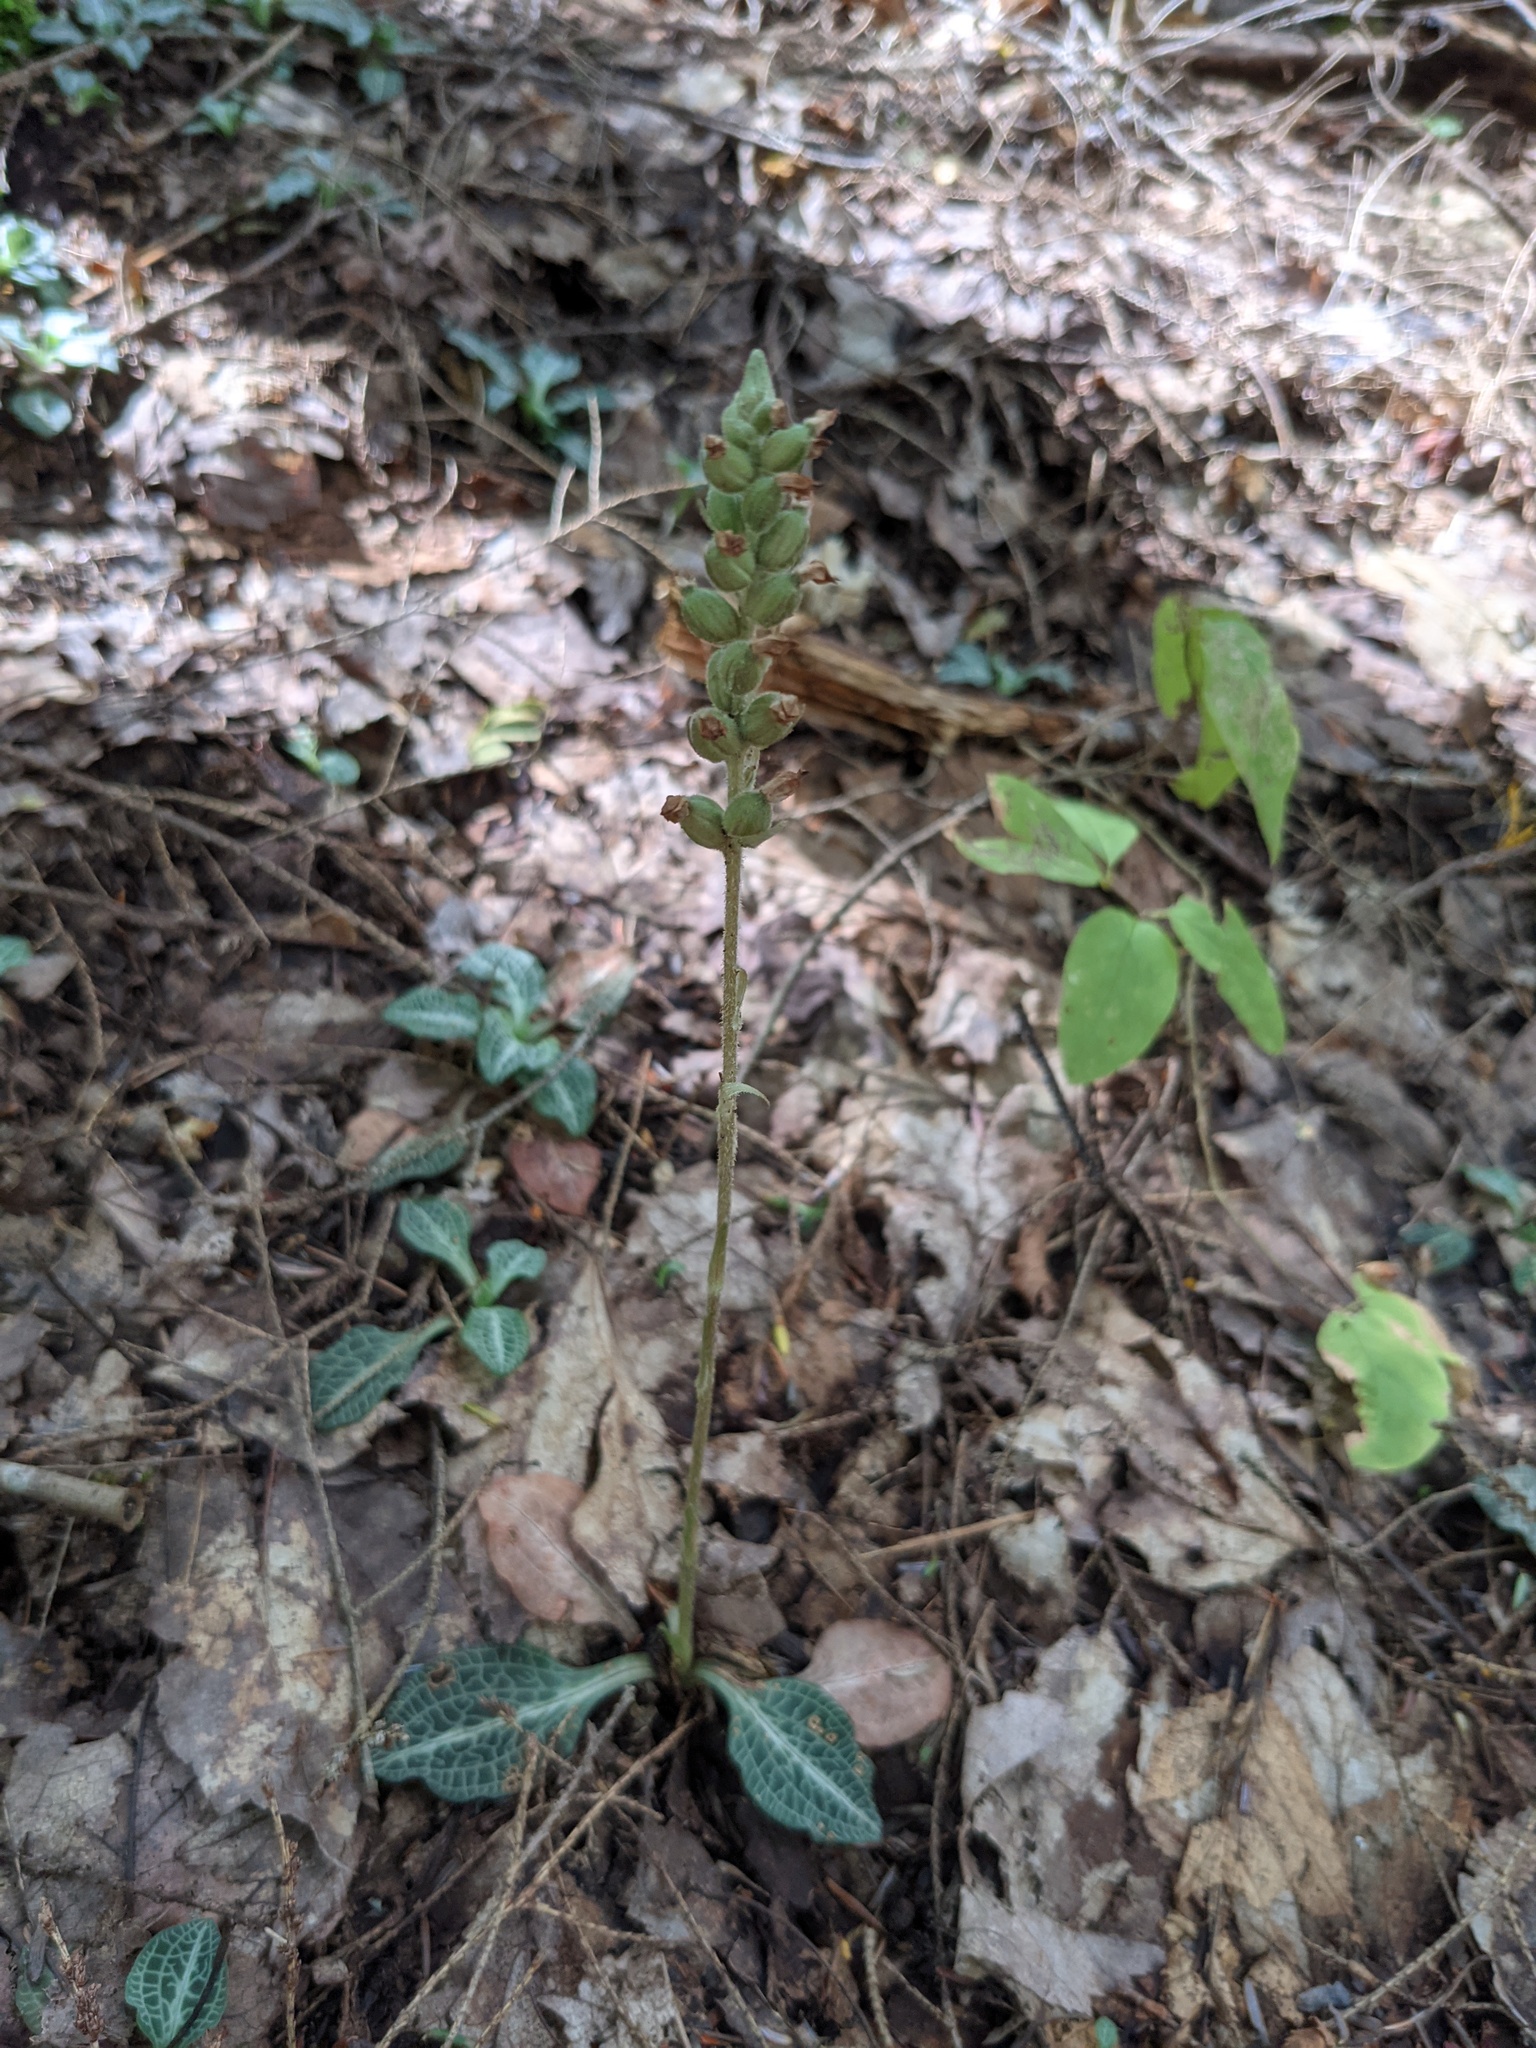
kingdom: Plantae
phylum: Tracheophyta
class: Liliopsida
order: Asparagales
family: Orchidaceae
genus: Goodyera
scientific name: Goodyera pubescens
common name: Downy rattlesnake-plantain
